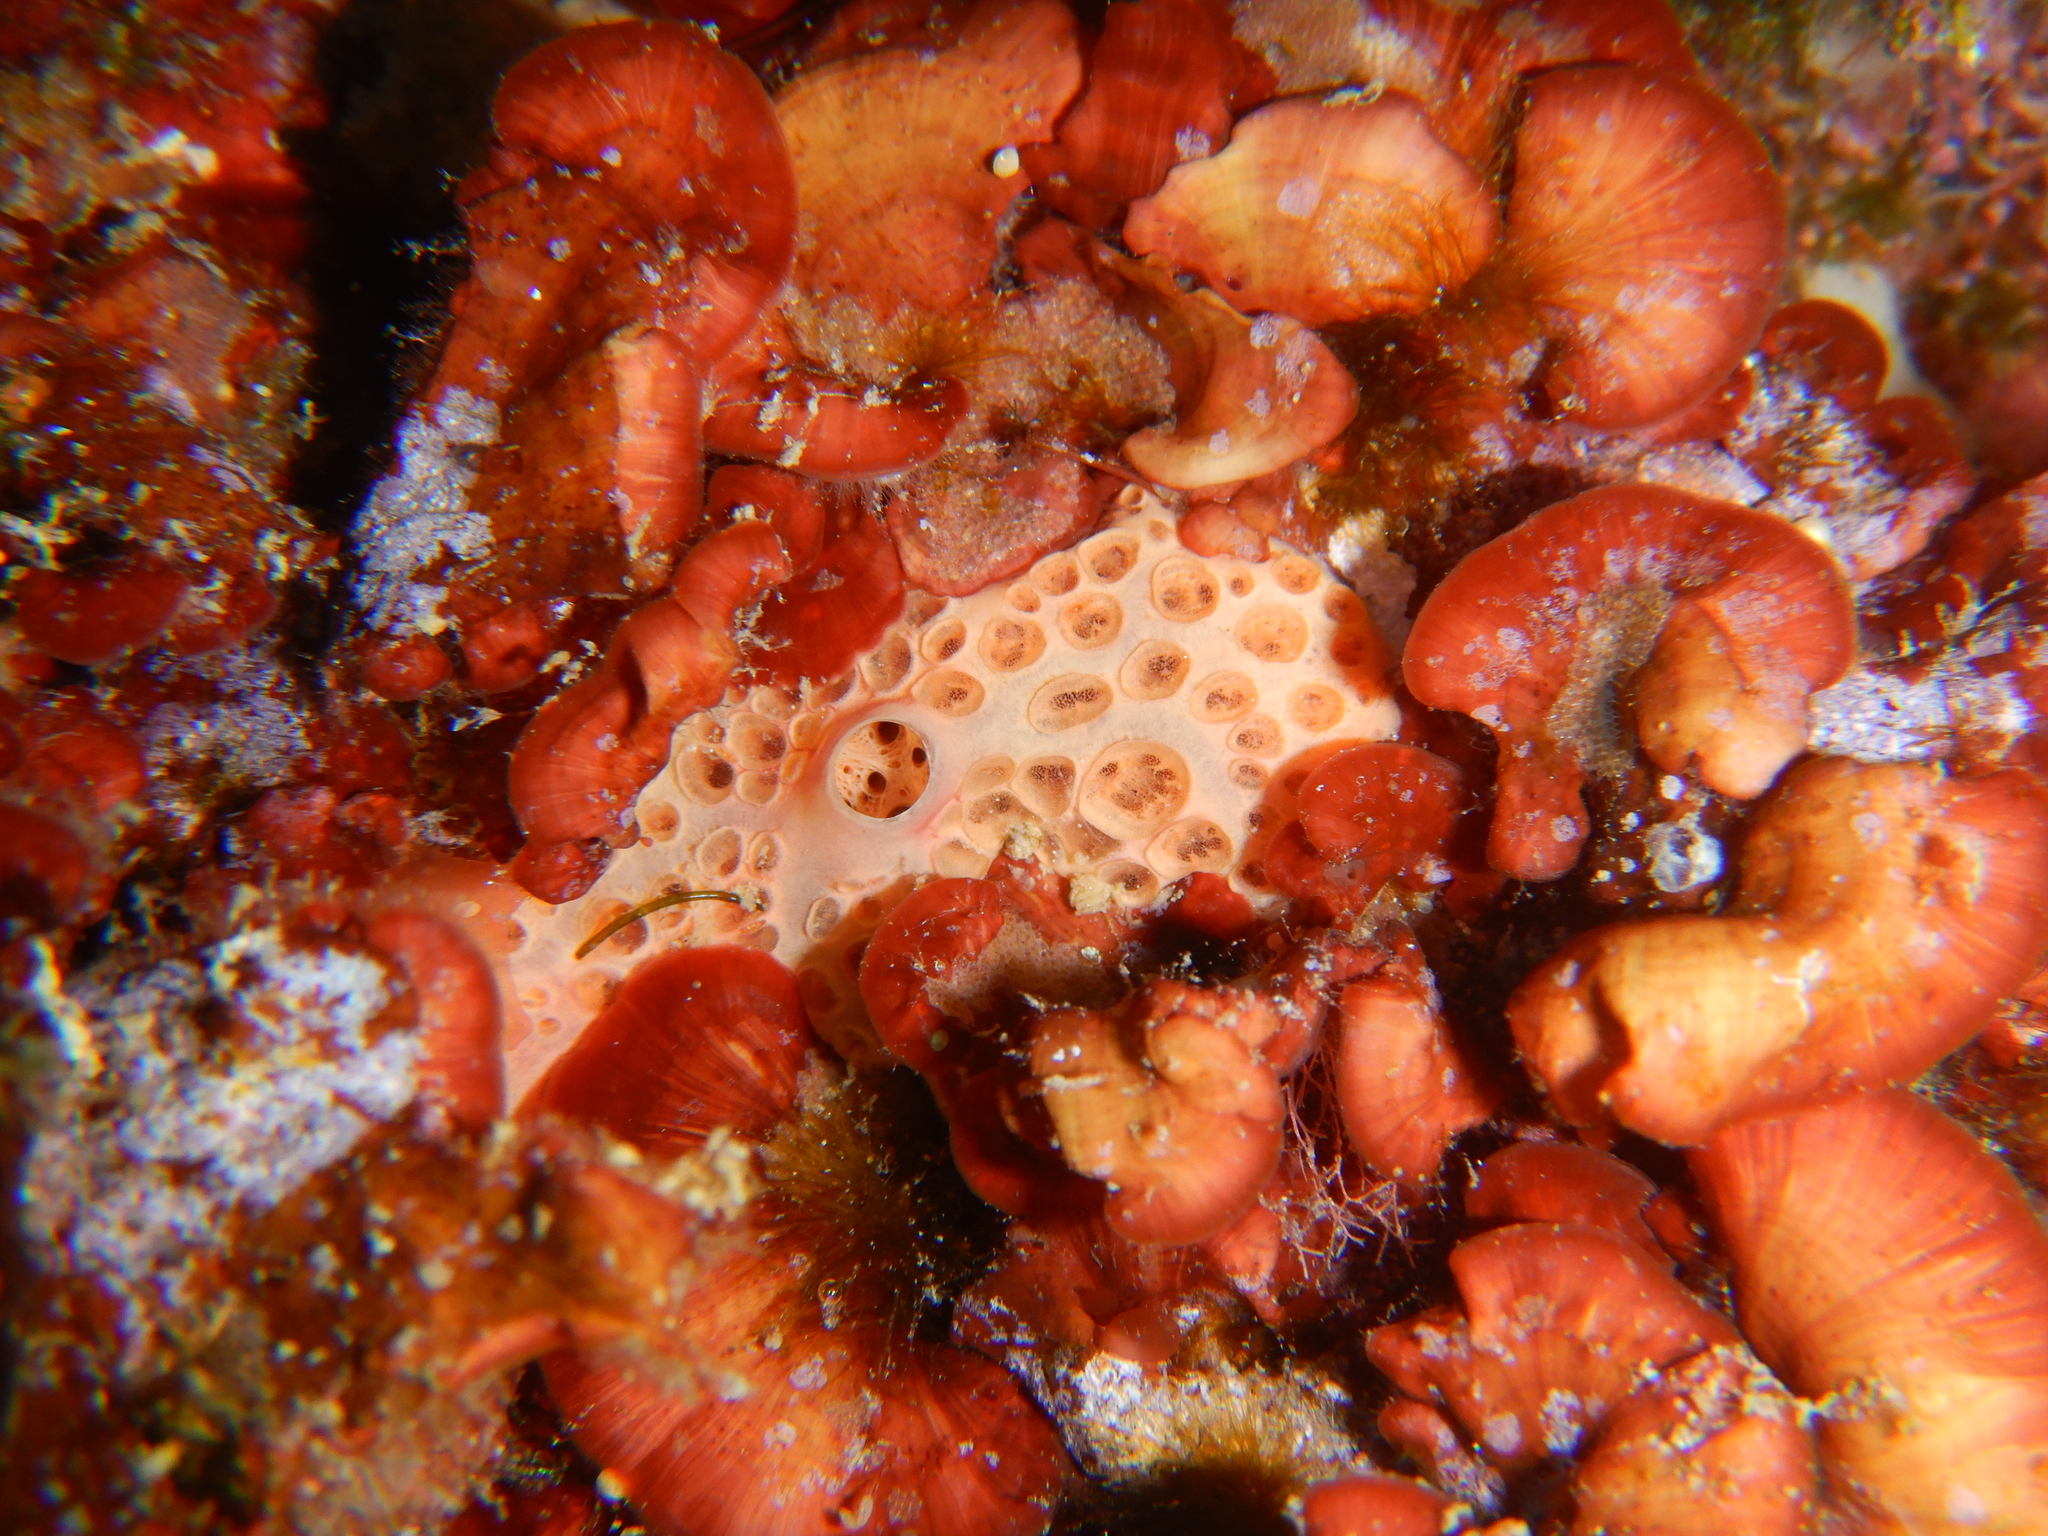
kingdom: Animalia
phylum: Porifera
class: Demospongiae
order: Poecilosclerida
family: Hymedesmiidae
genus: Hemimycale
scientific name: Hemimycale columella
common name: Crater sponge
